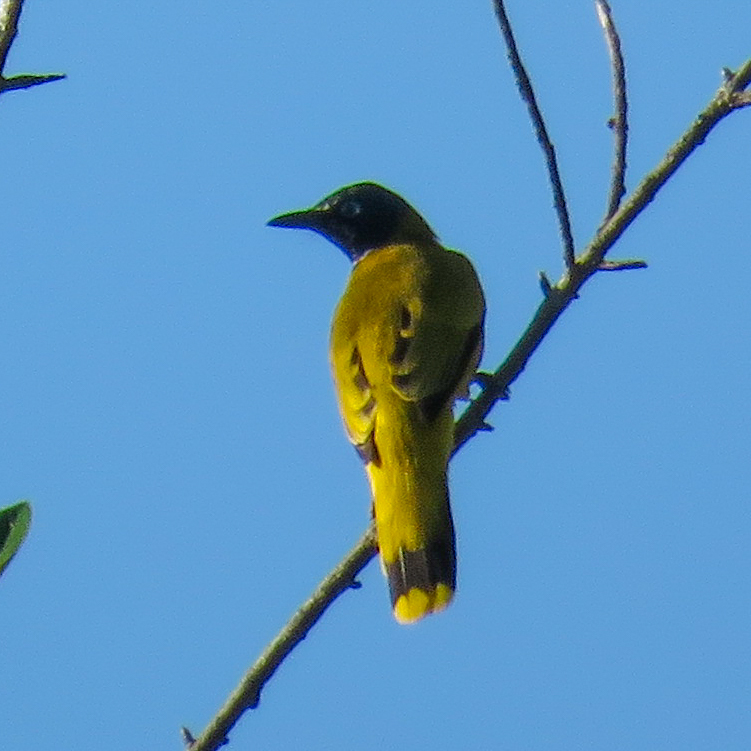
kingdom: Animalia
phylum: Chordata
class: Aves
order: Passeriformes
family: Pycnonotidae
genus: Microtarsus
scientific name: Microtarsus
